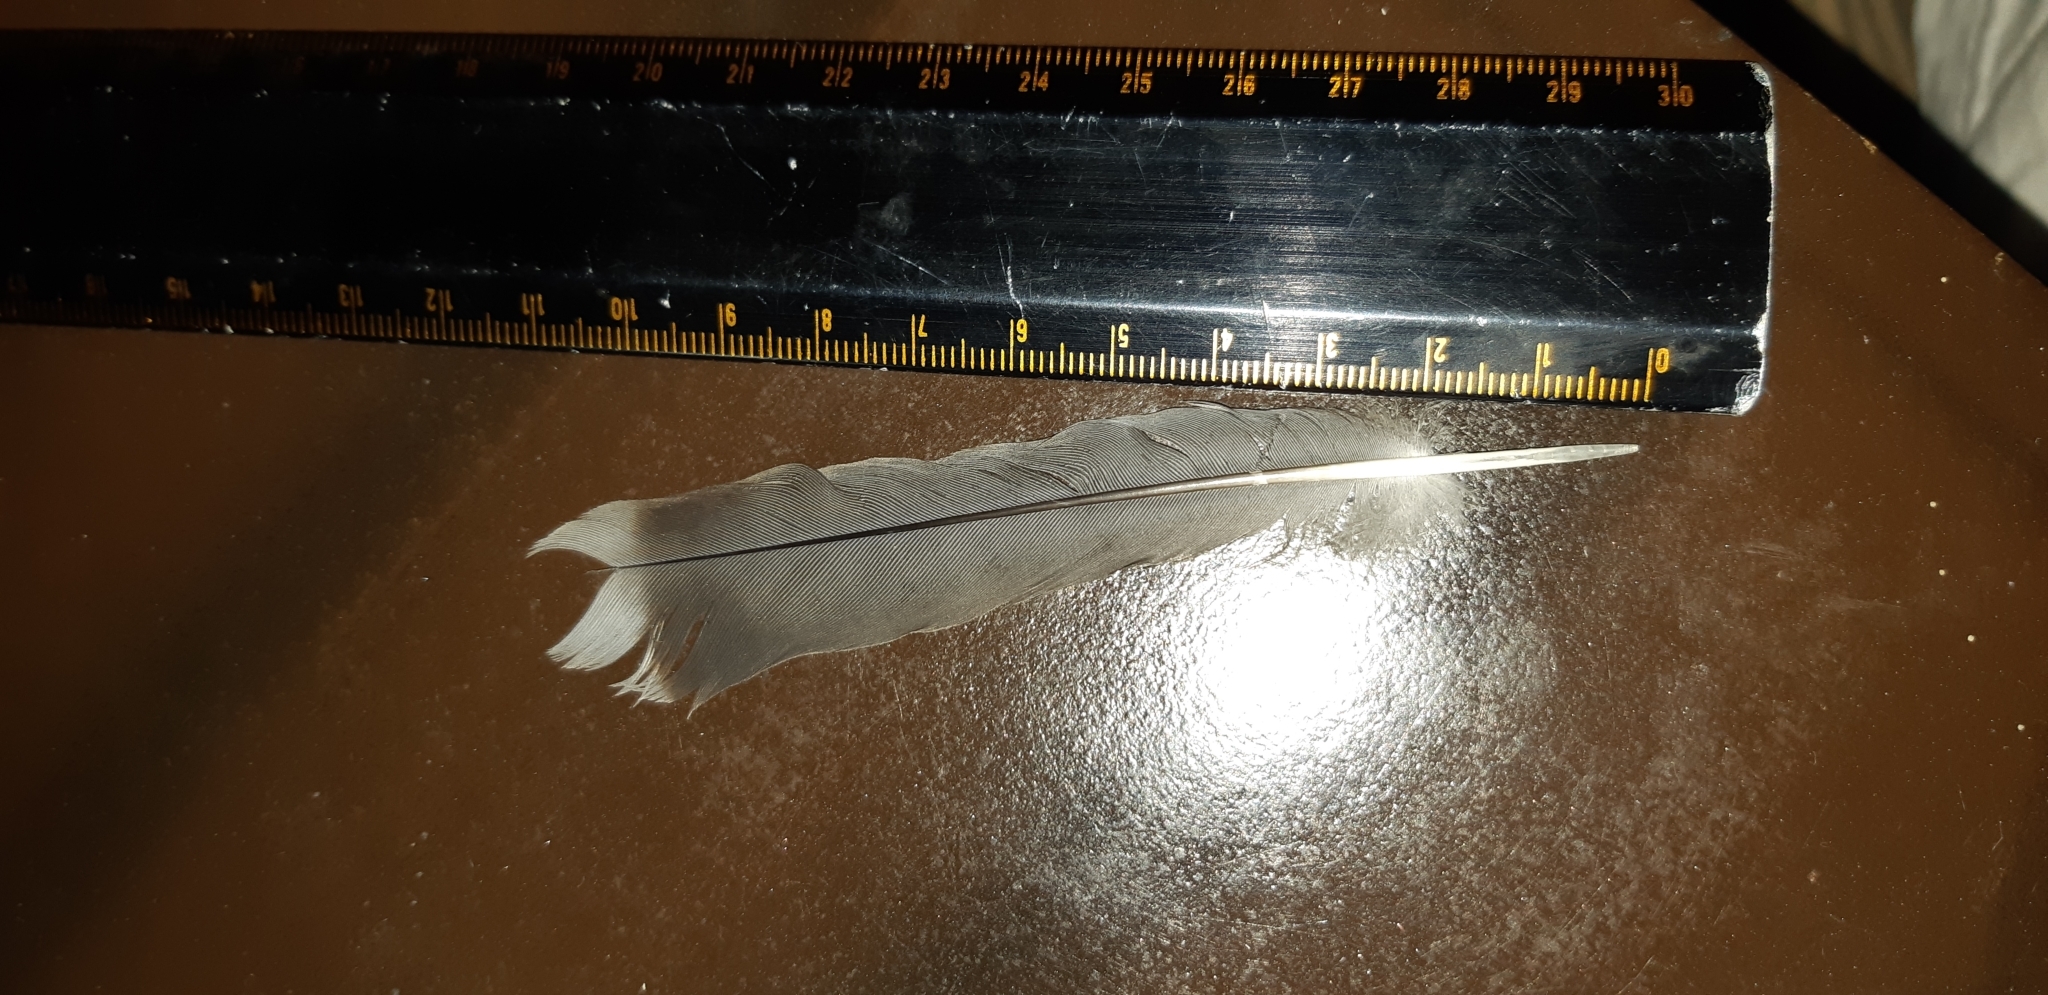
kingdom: Animalia
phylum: Chordata
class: Aves
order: Columbiformes
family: Columbidae
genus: Leptotila
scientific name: Leptotila verreauxi
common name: White-tipped dove
